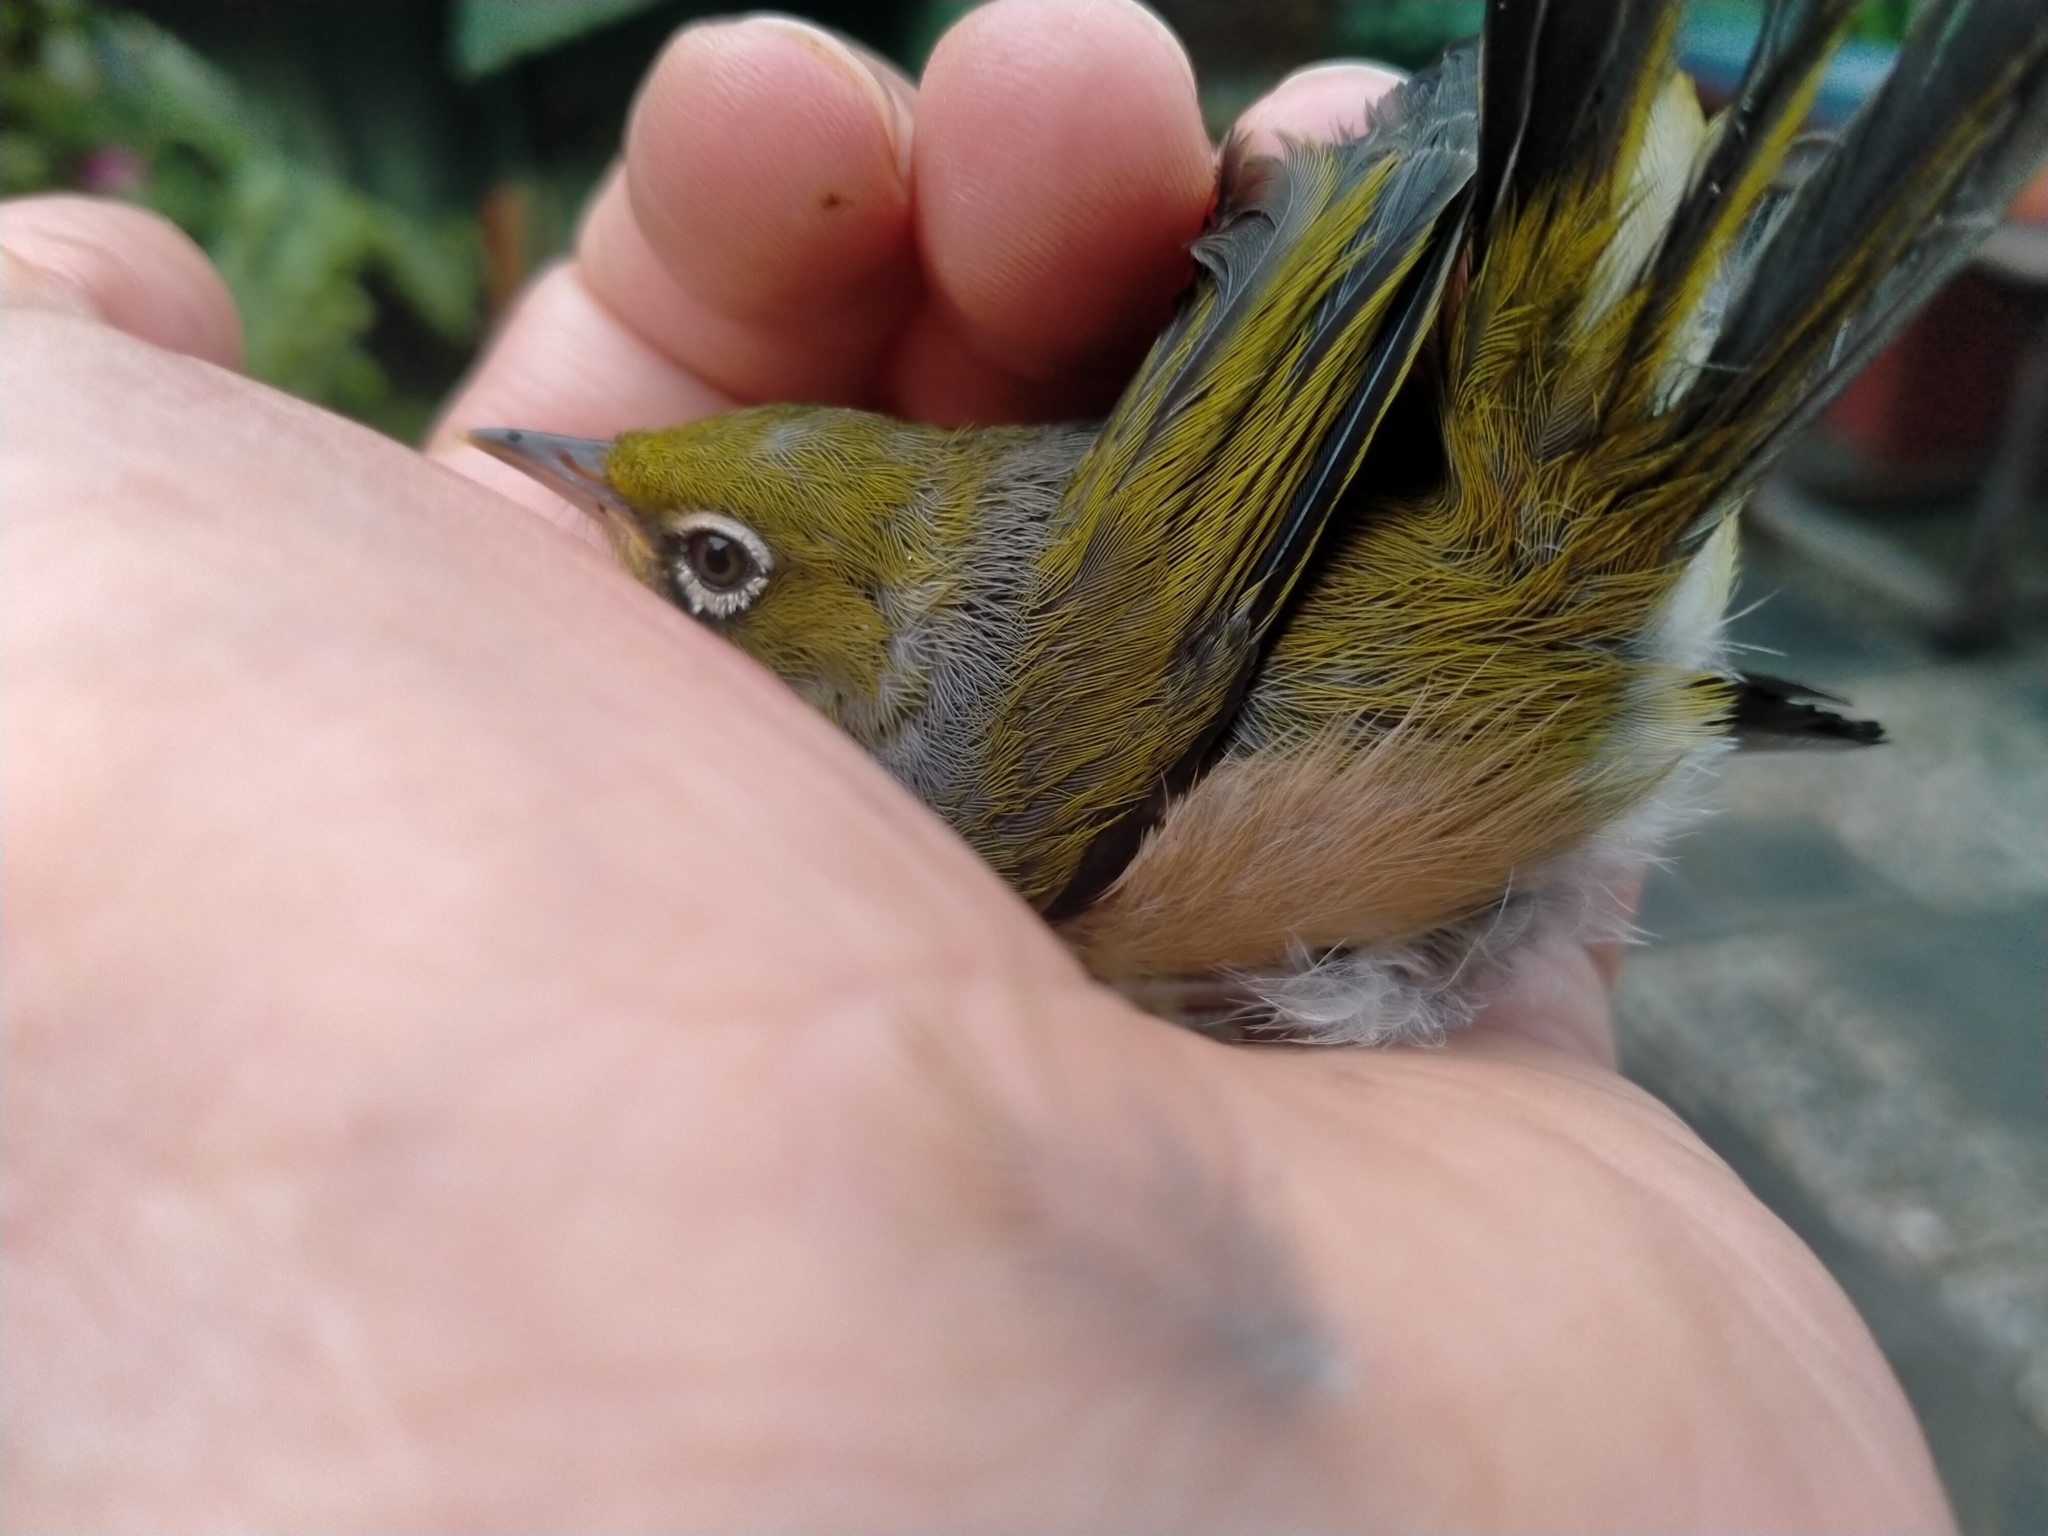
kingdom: Animalia
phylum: Chordata
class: Aves
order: Passeriformes
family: Zosteropidae
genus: Zosterops
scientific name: Zosterops lateralis
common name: Silvereye
